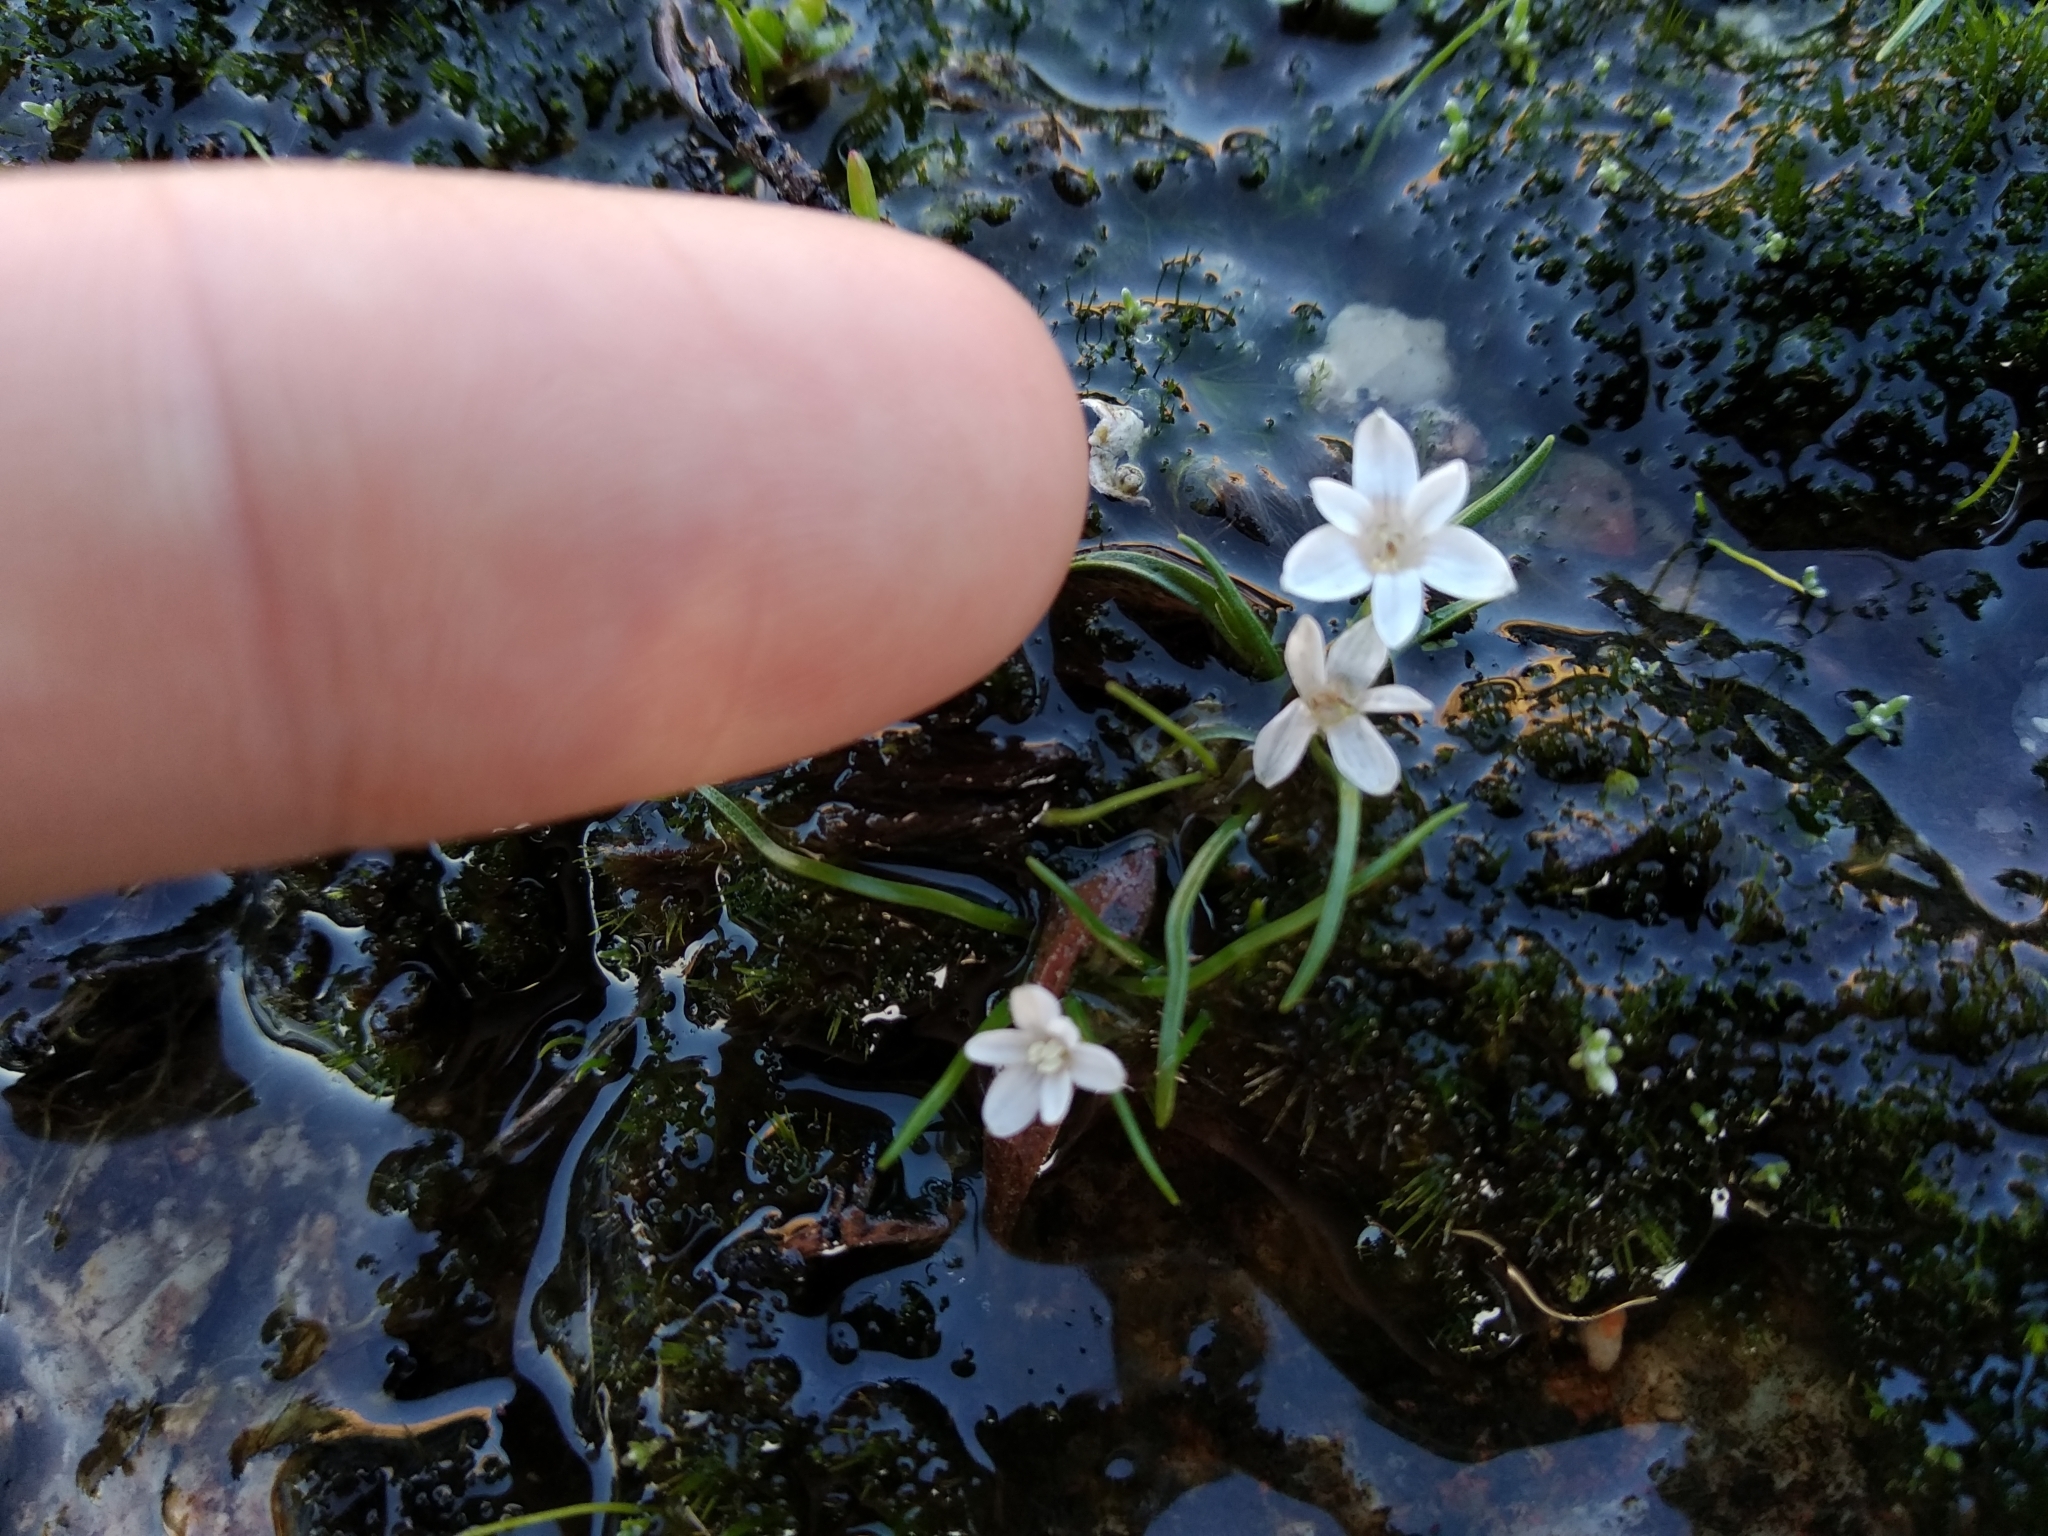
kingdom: Plantae
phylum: Tracheophyta
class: Liliopsida
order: Asparagales
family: Hypoxidaceae
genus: Pauridia
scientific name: Pauridia minuta
